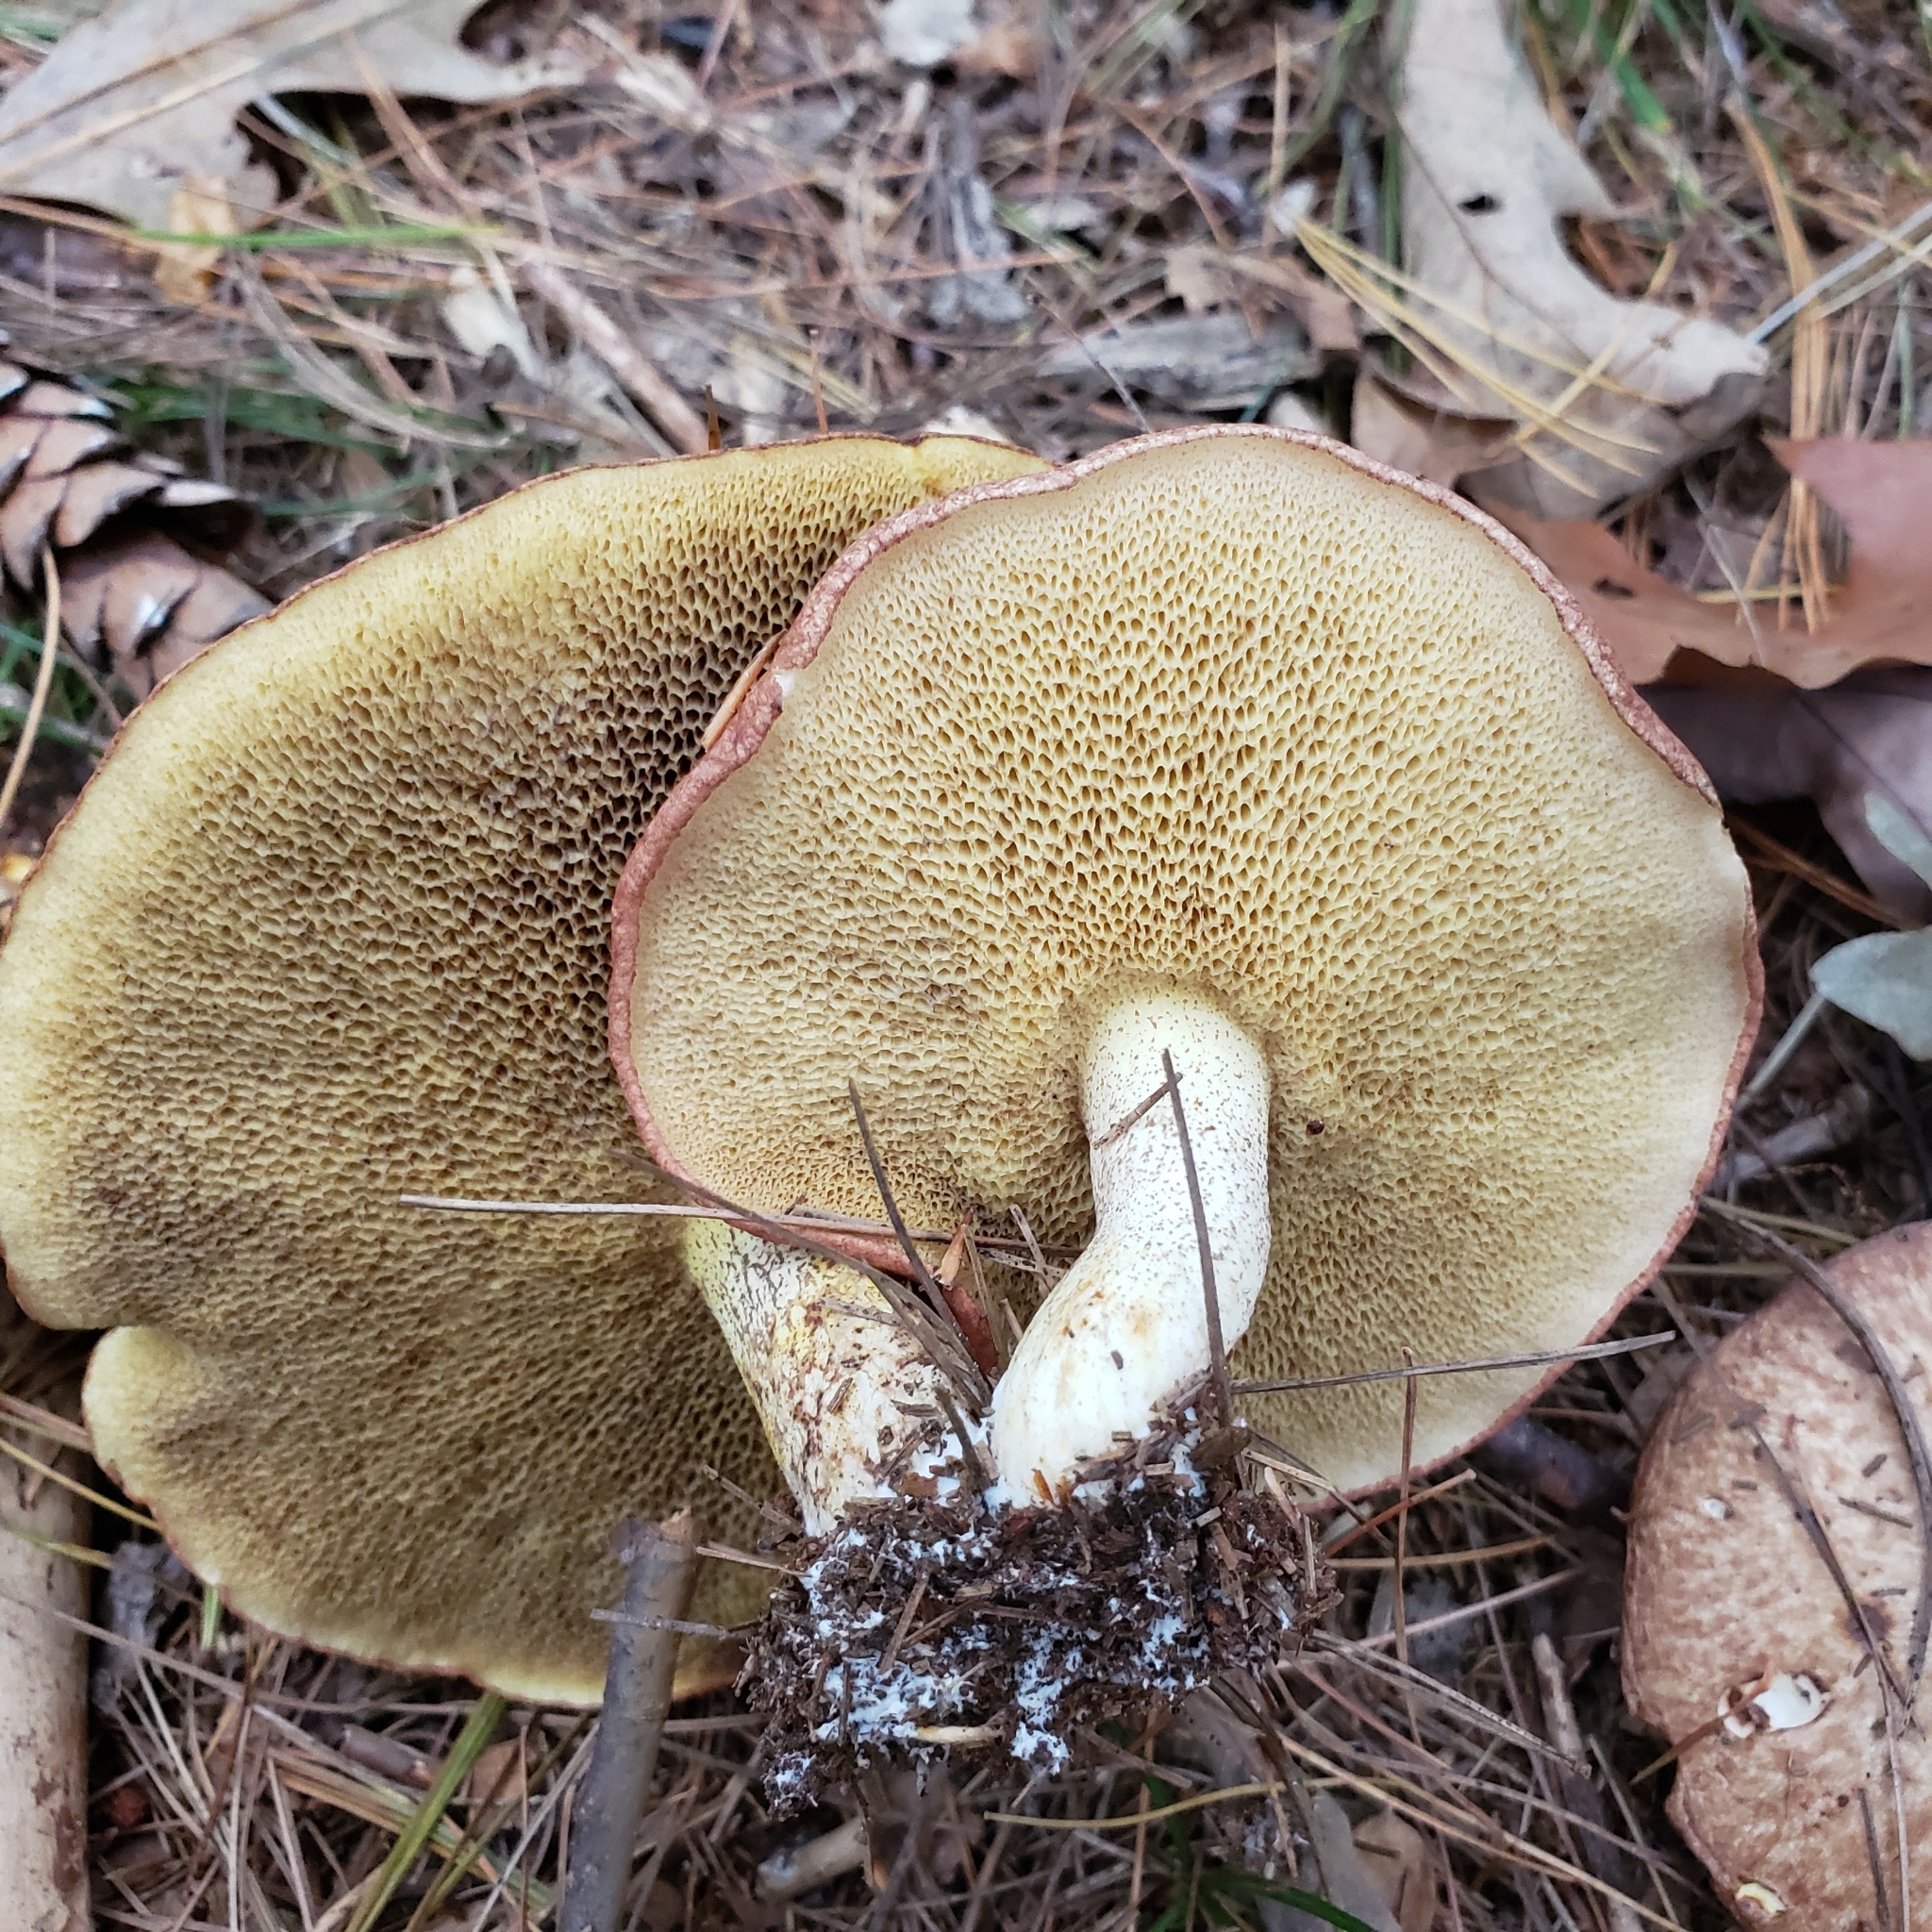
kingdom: Fungi
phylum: Basidiomycota
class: Agaricomycetes
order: Boletales
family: Suillaceae
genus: Fuscoboletinus
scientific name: Fuscoboletinus weaverae
